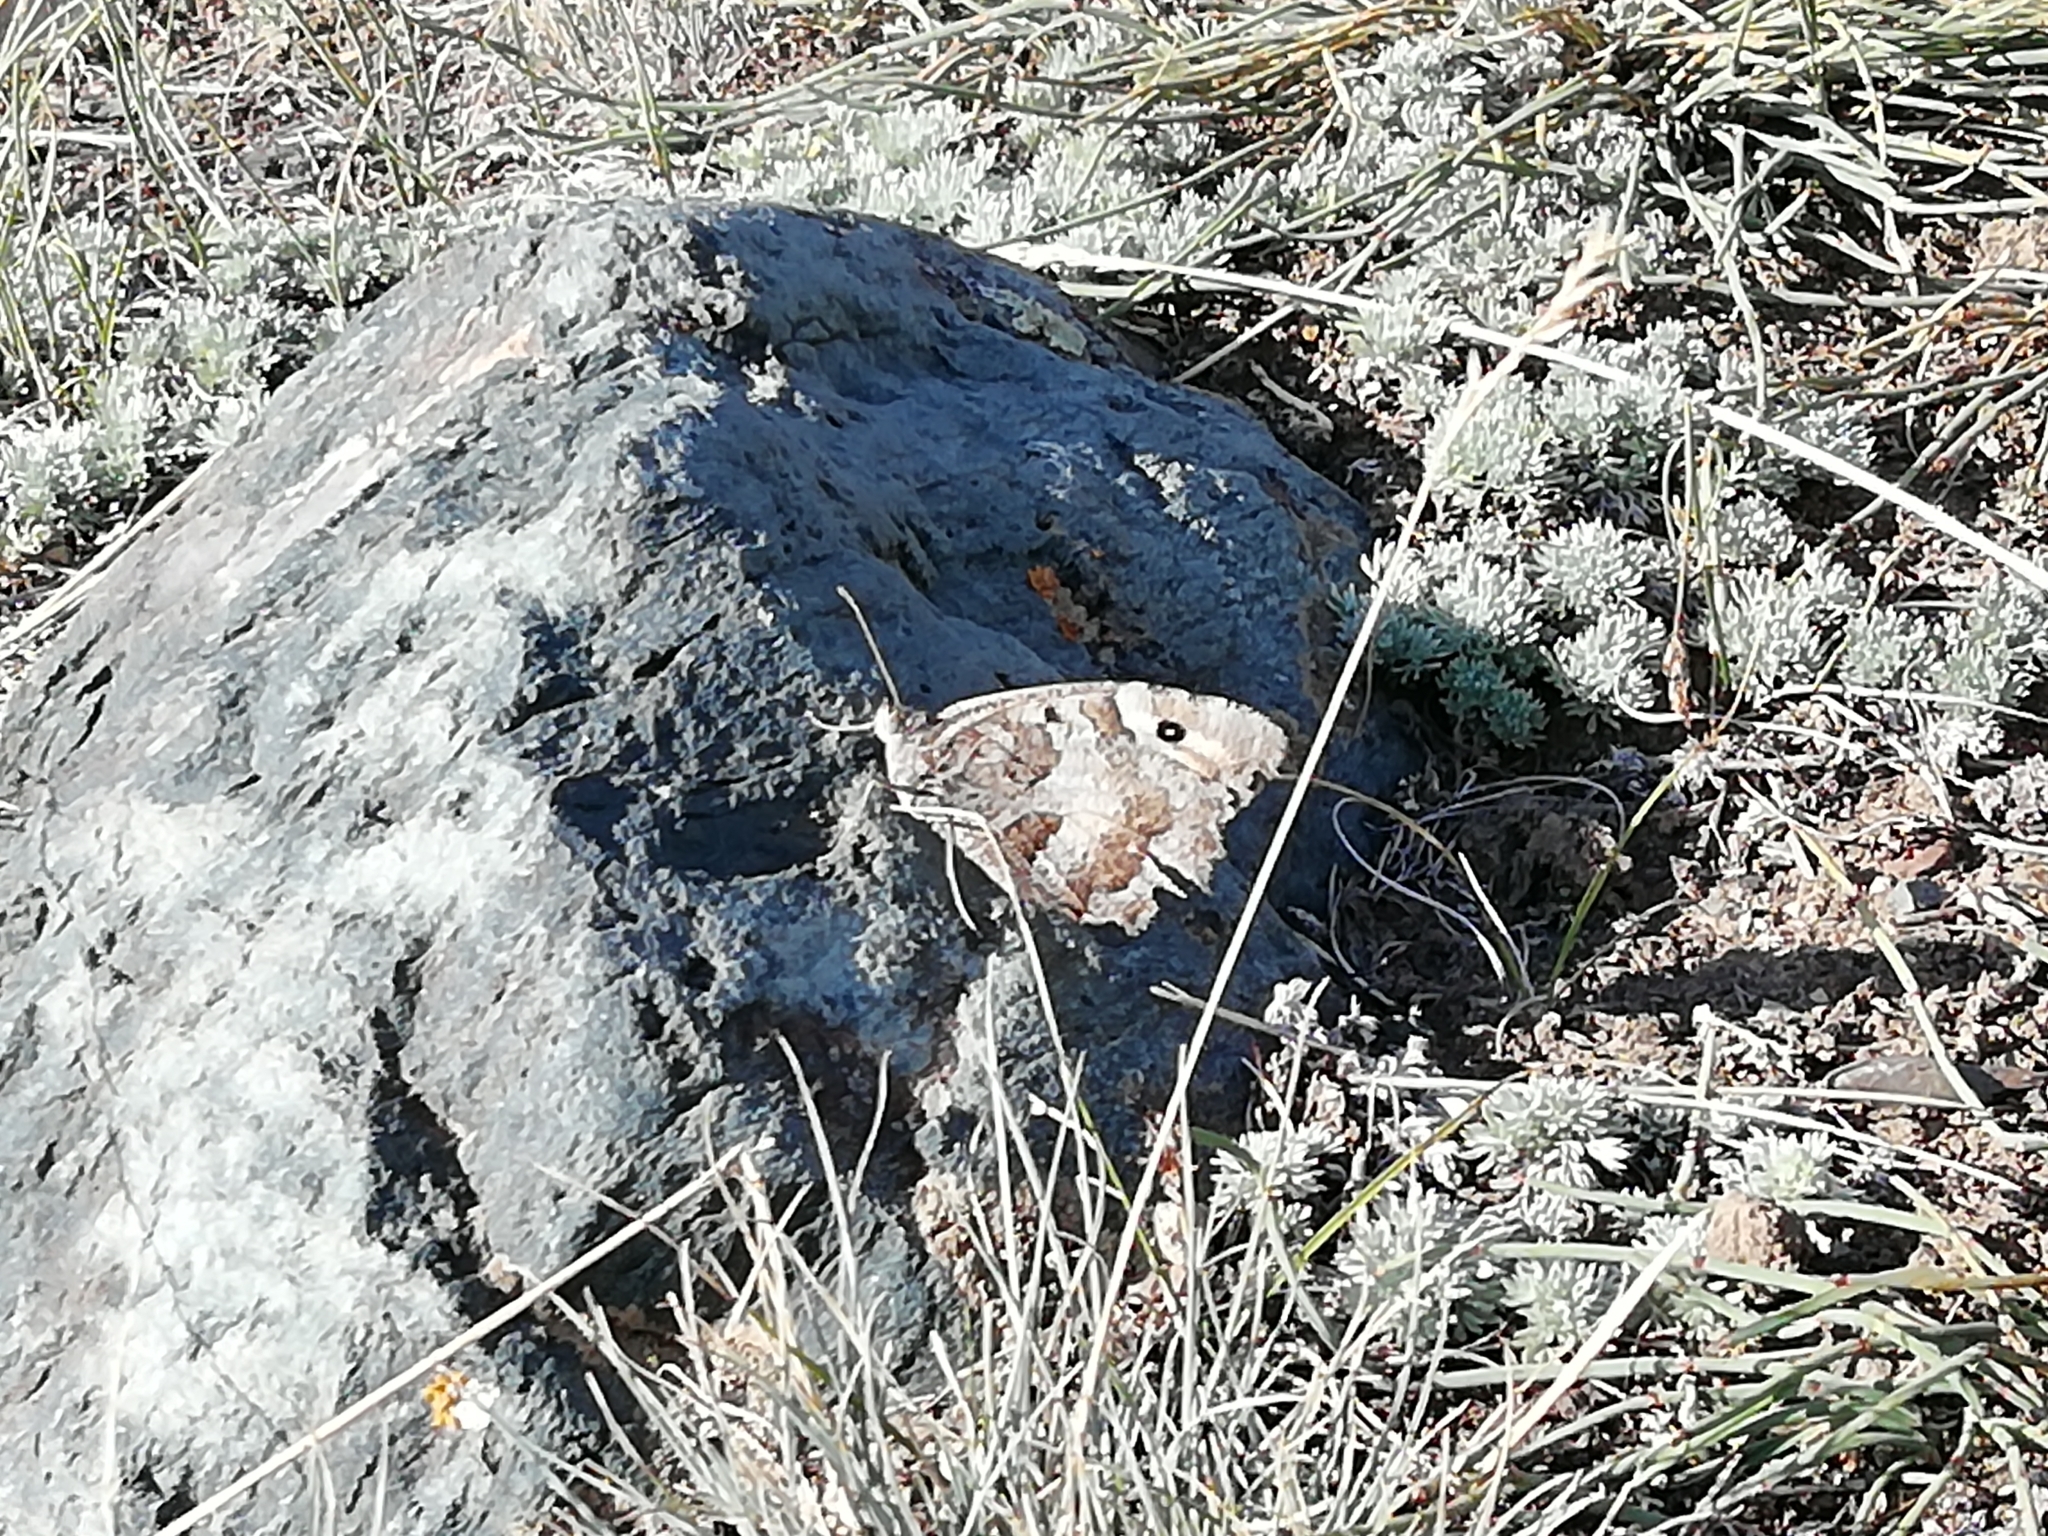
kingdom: Animalia
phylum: Arthropoda
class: Insecta
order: Lepidoptera
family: Nymphalidae
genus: Satyrus
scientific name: Satyrus briseis
